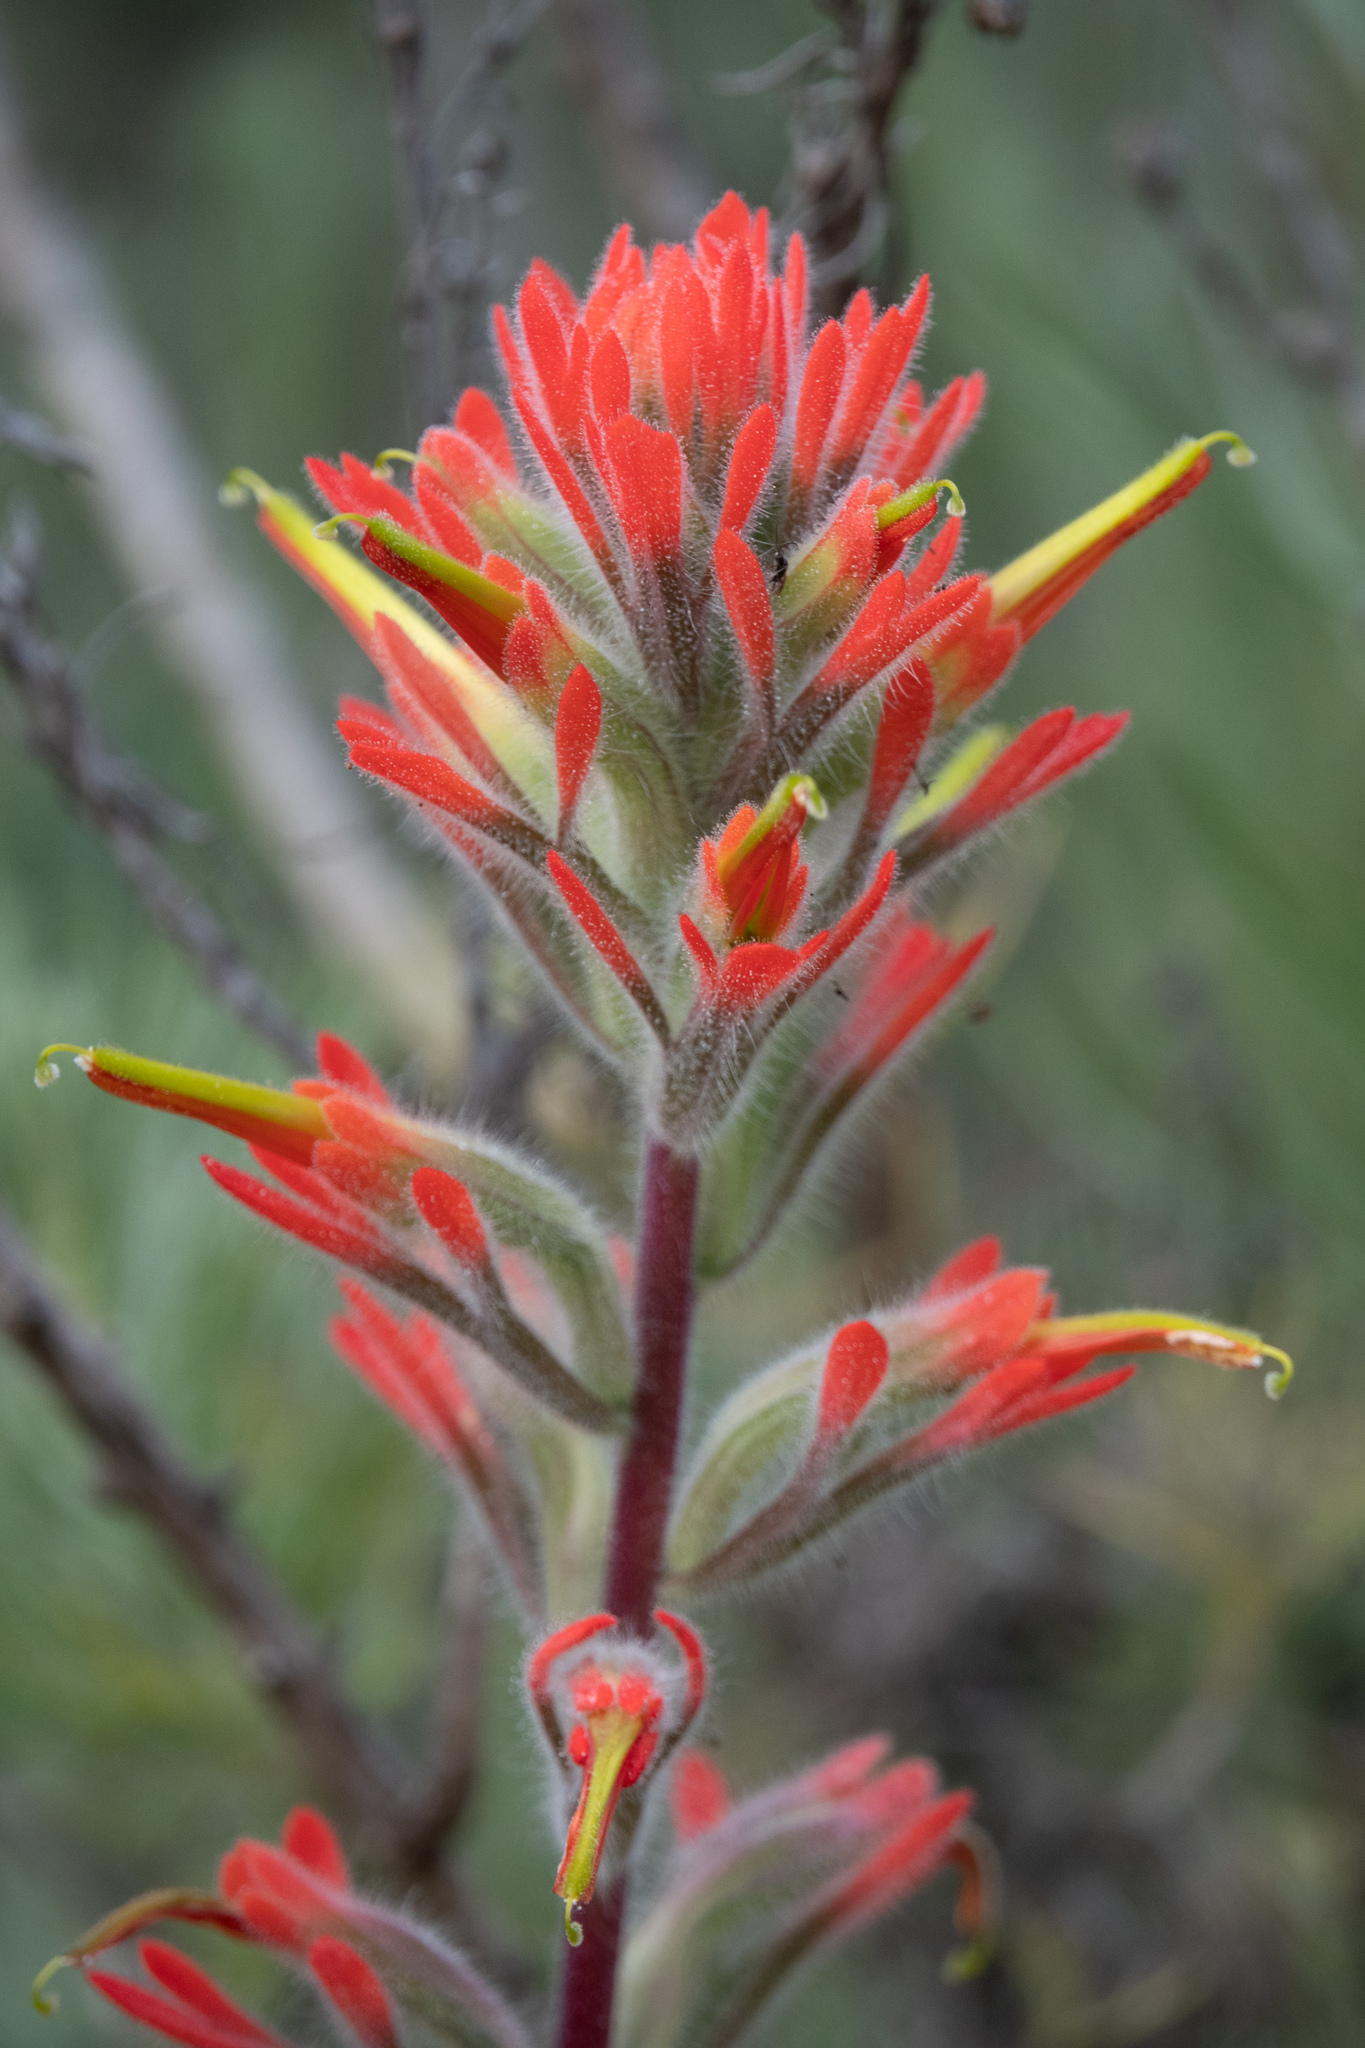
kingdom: Plantae
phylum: Tracheophyta
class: Magnoliopsida
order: Lamiales
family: Orobanchaceae
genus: Castilleja
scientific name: Castilleja affinis
